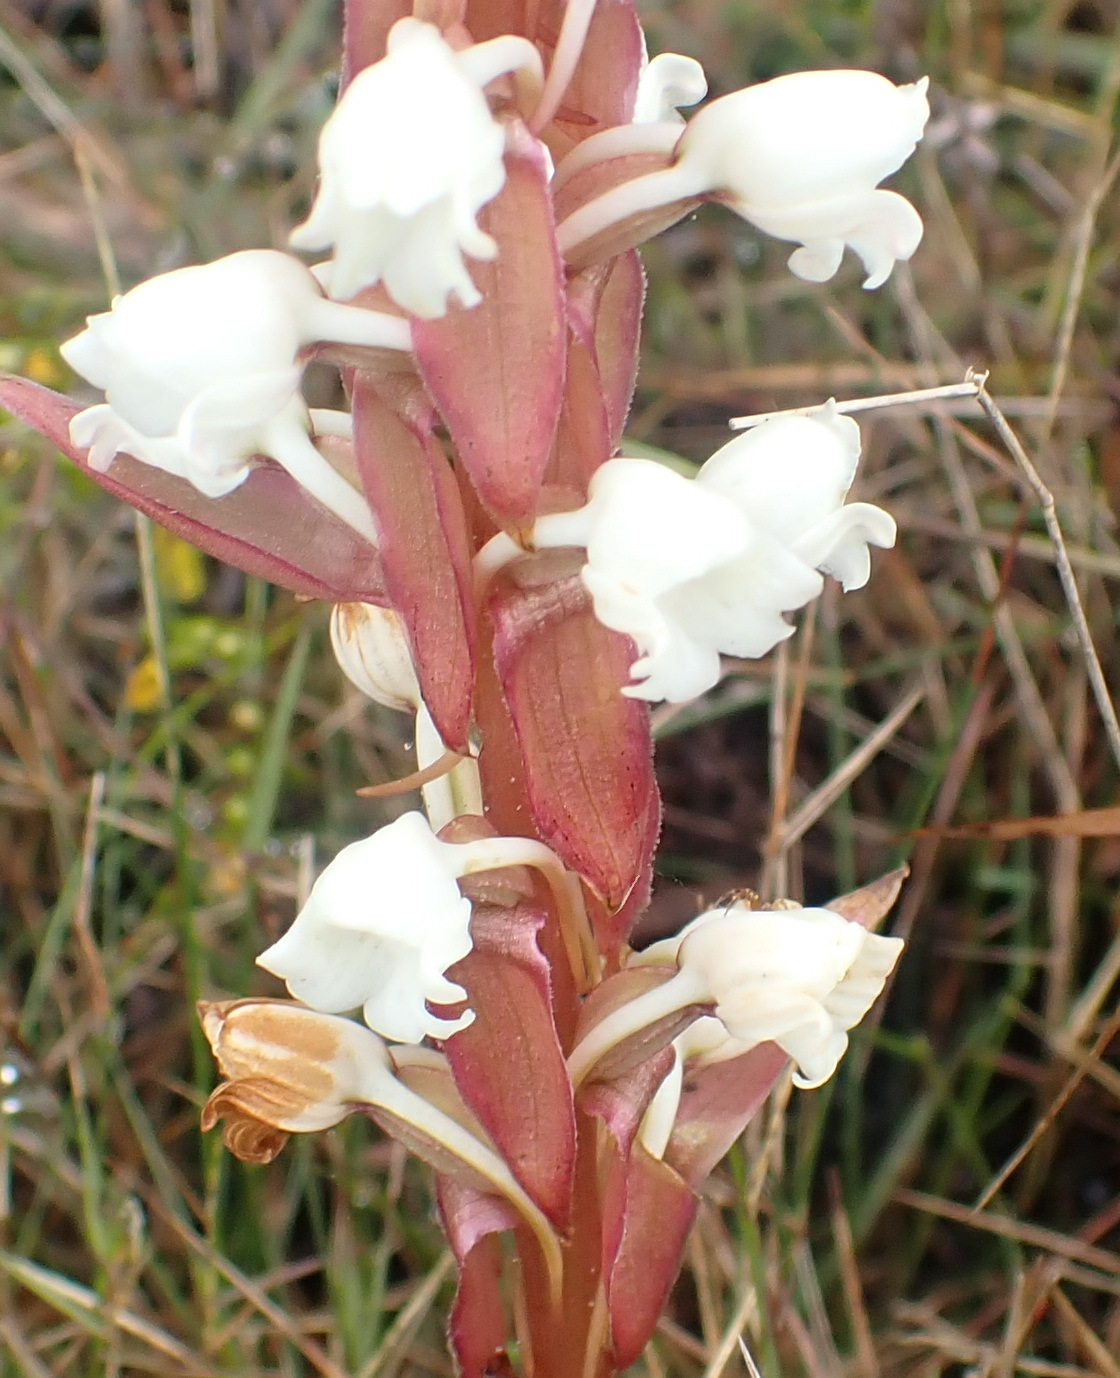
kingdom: Plantae
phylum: Tracheophyta
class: Liliopsida
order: Asparagales
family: Orchidaceae
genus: Satyrium
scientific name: Satyrium acuminatum
